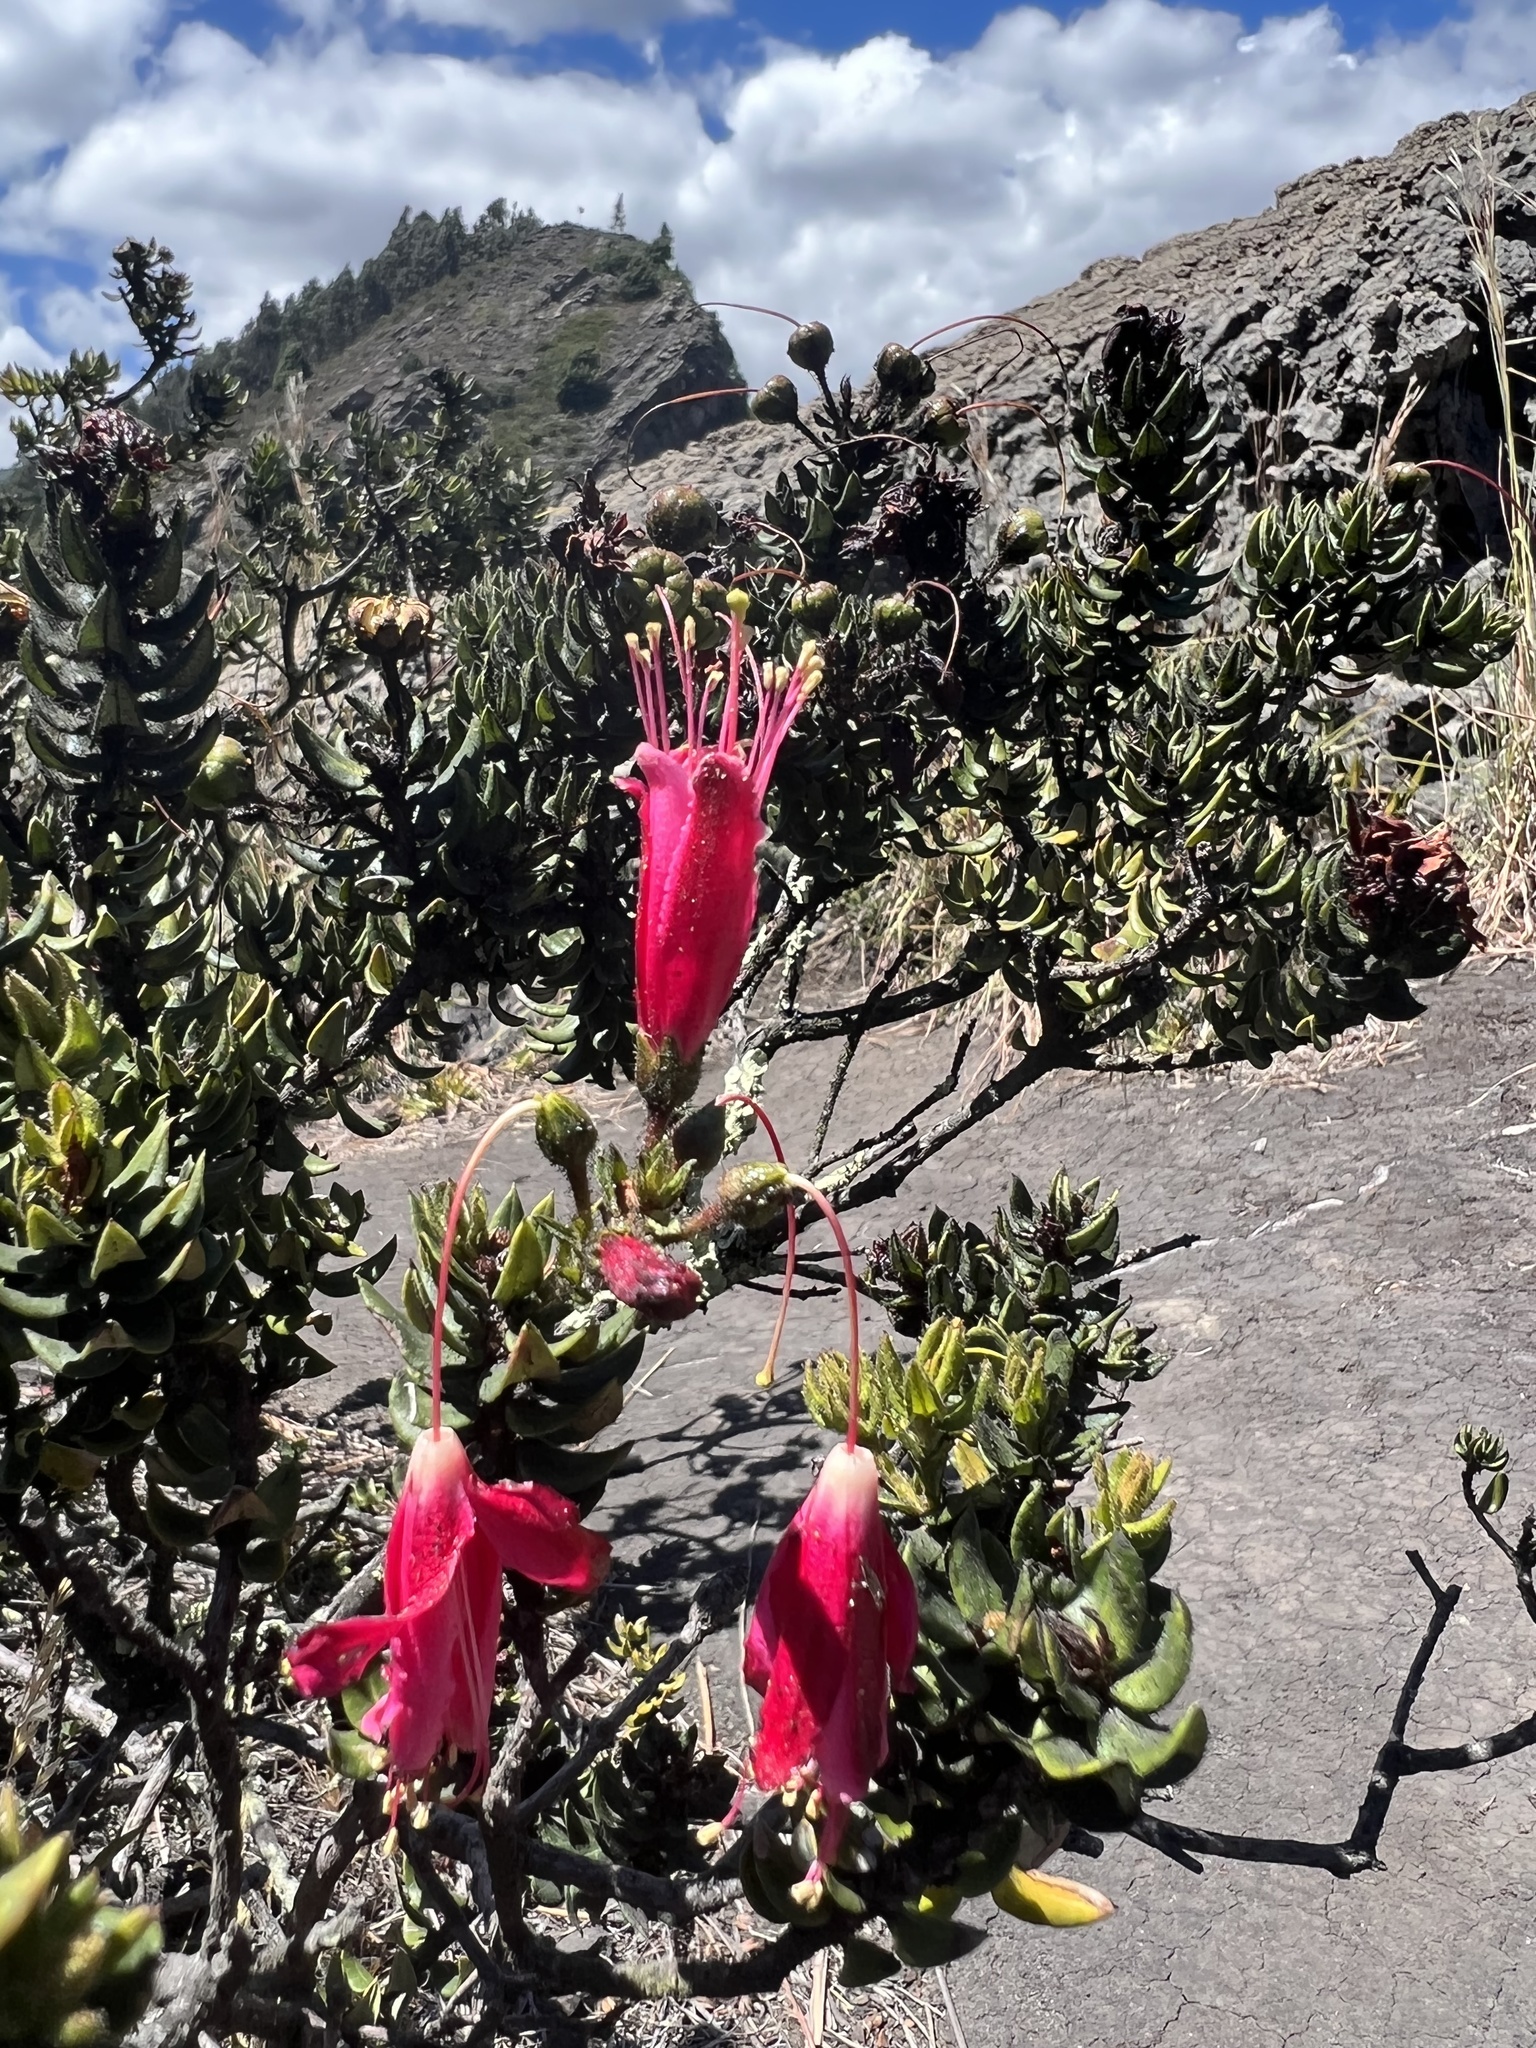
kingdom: Plantae
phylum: Tracheophyta
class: Magnoliopsida
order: Ericales
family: Ericaceae
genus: Bejaria
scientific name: Bejaria resinosa
